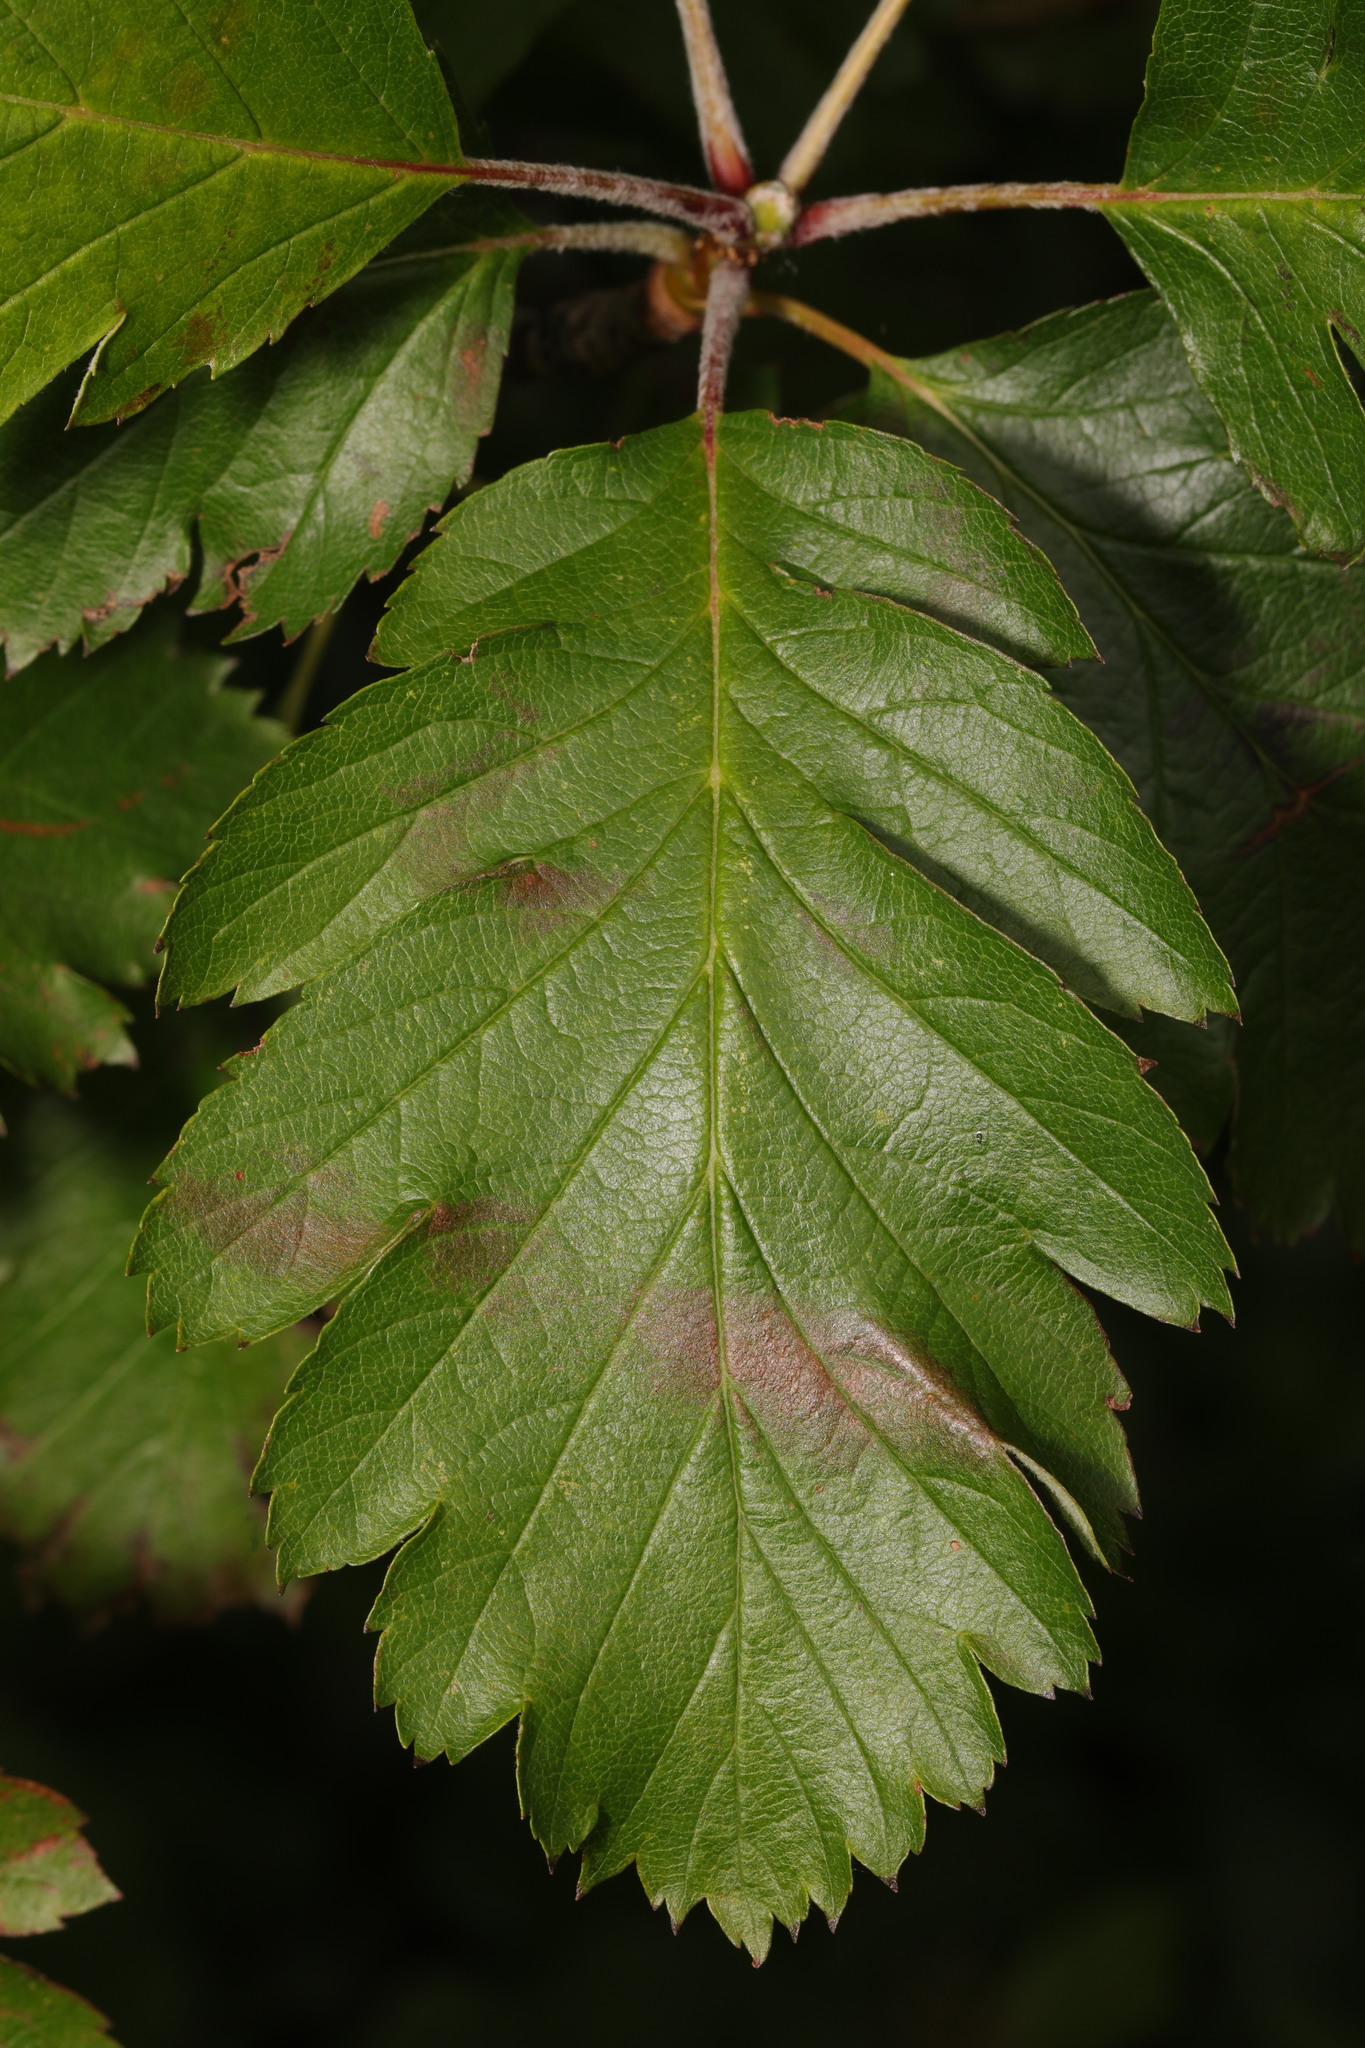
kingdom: Plantae
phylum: Tracheophyta
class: Magnoliopsida
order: Rosales
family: Rosaceae
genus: Scandosorbus
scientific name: Scandosorbus intermedia
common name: Swedish whitebeam
